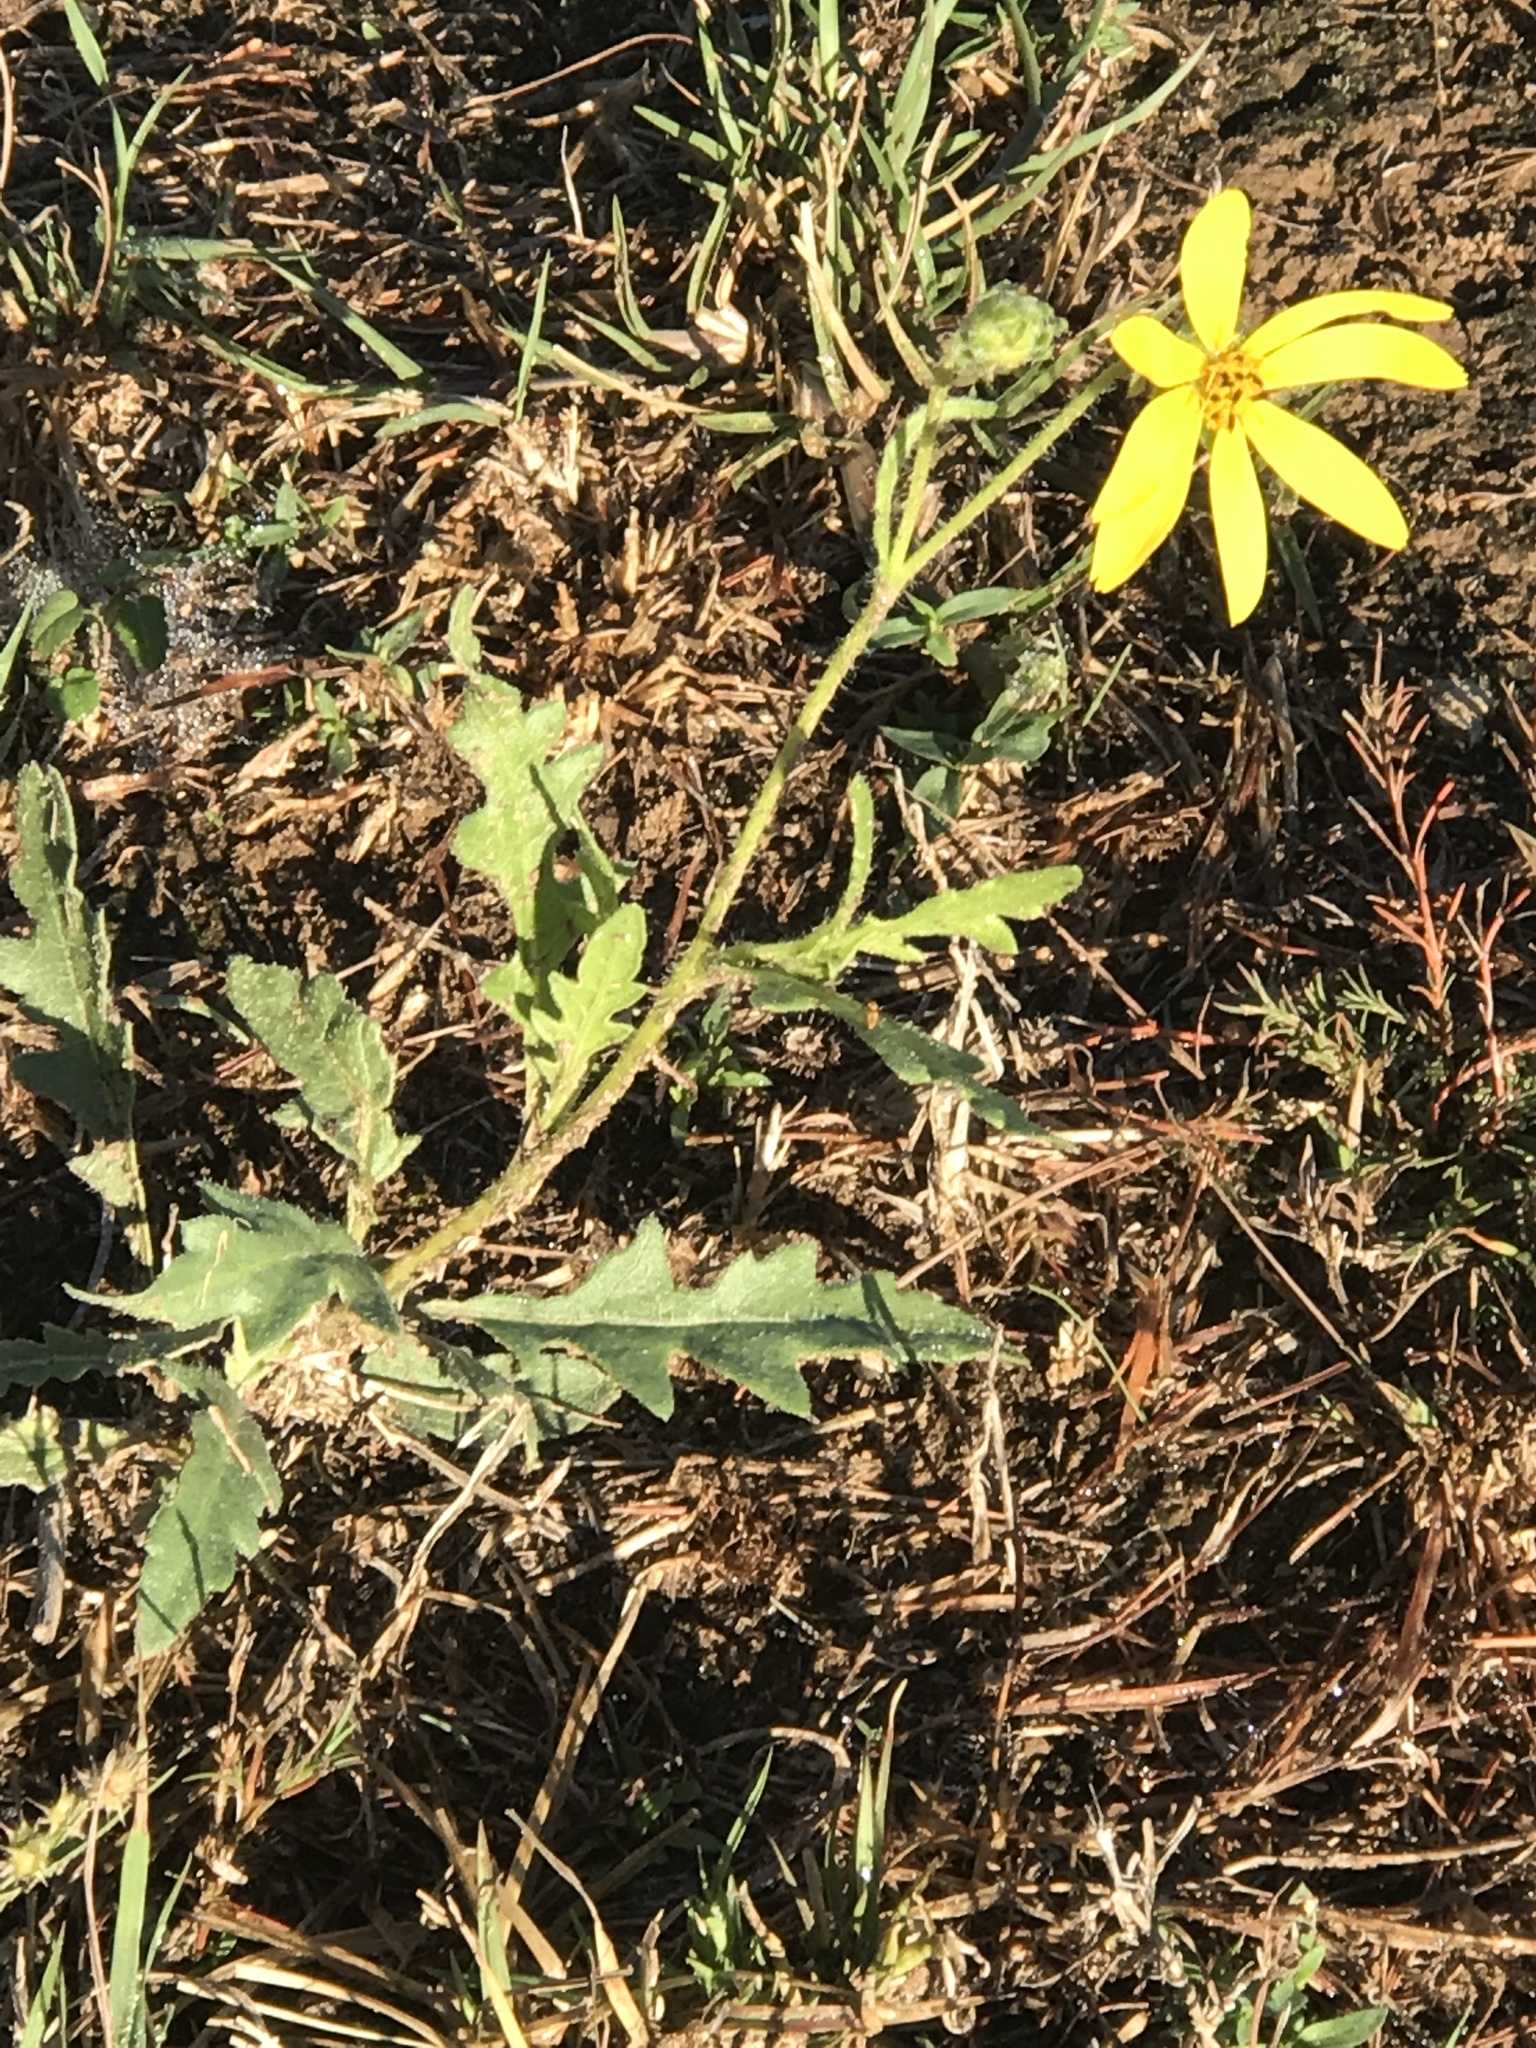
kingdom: Plantae
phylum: Tracheophyta
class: Magnoliopsida
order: Asterales
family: Asteraceae
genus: Engelmannia
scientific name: Engelmannia peristenia
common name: Engelmann's daisy
